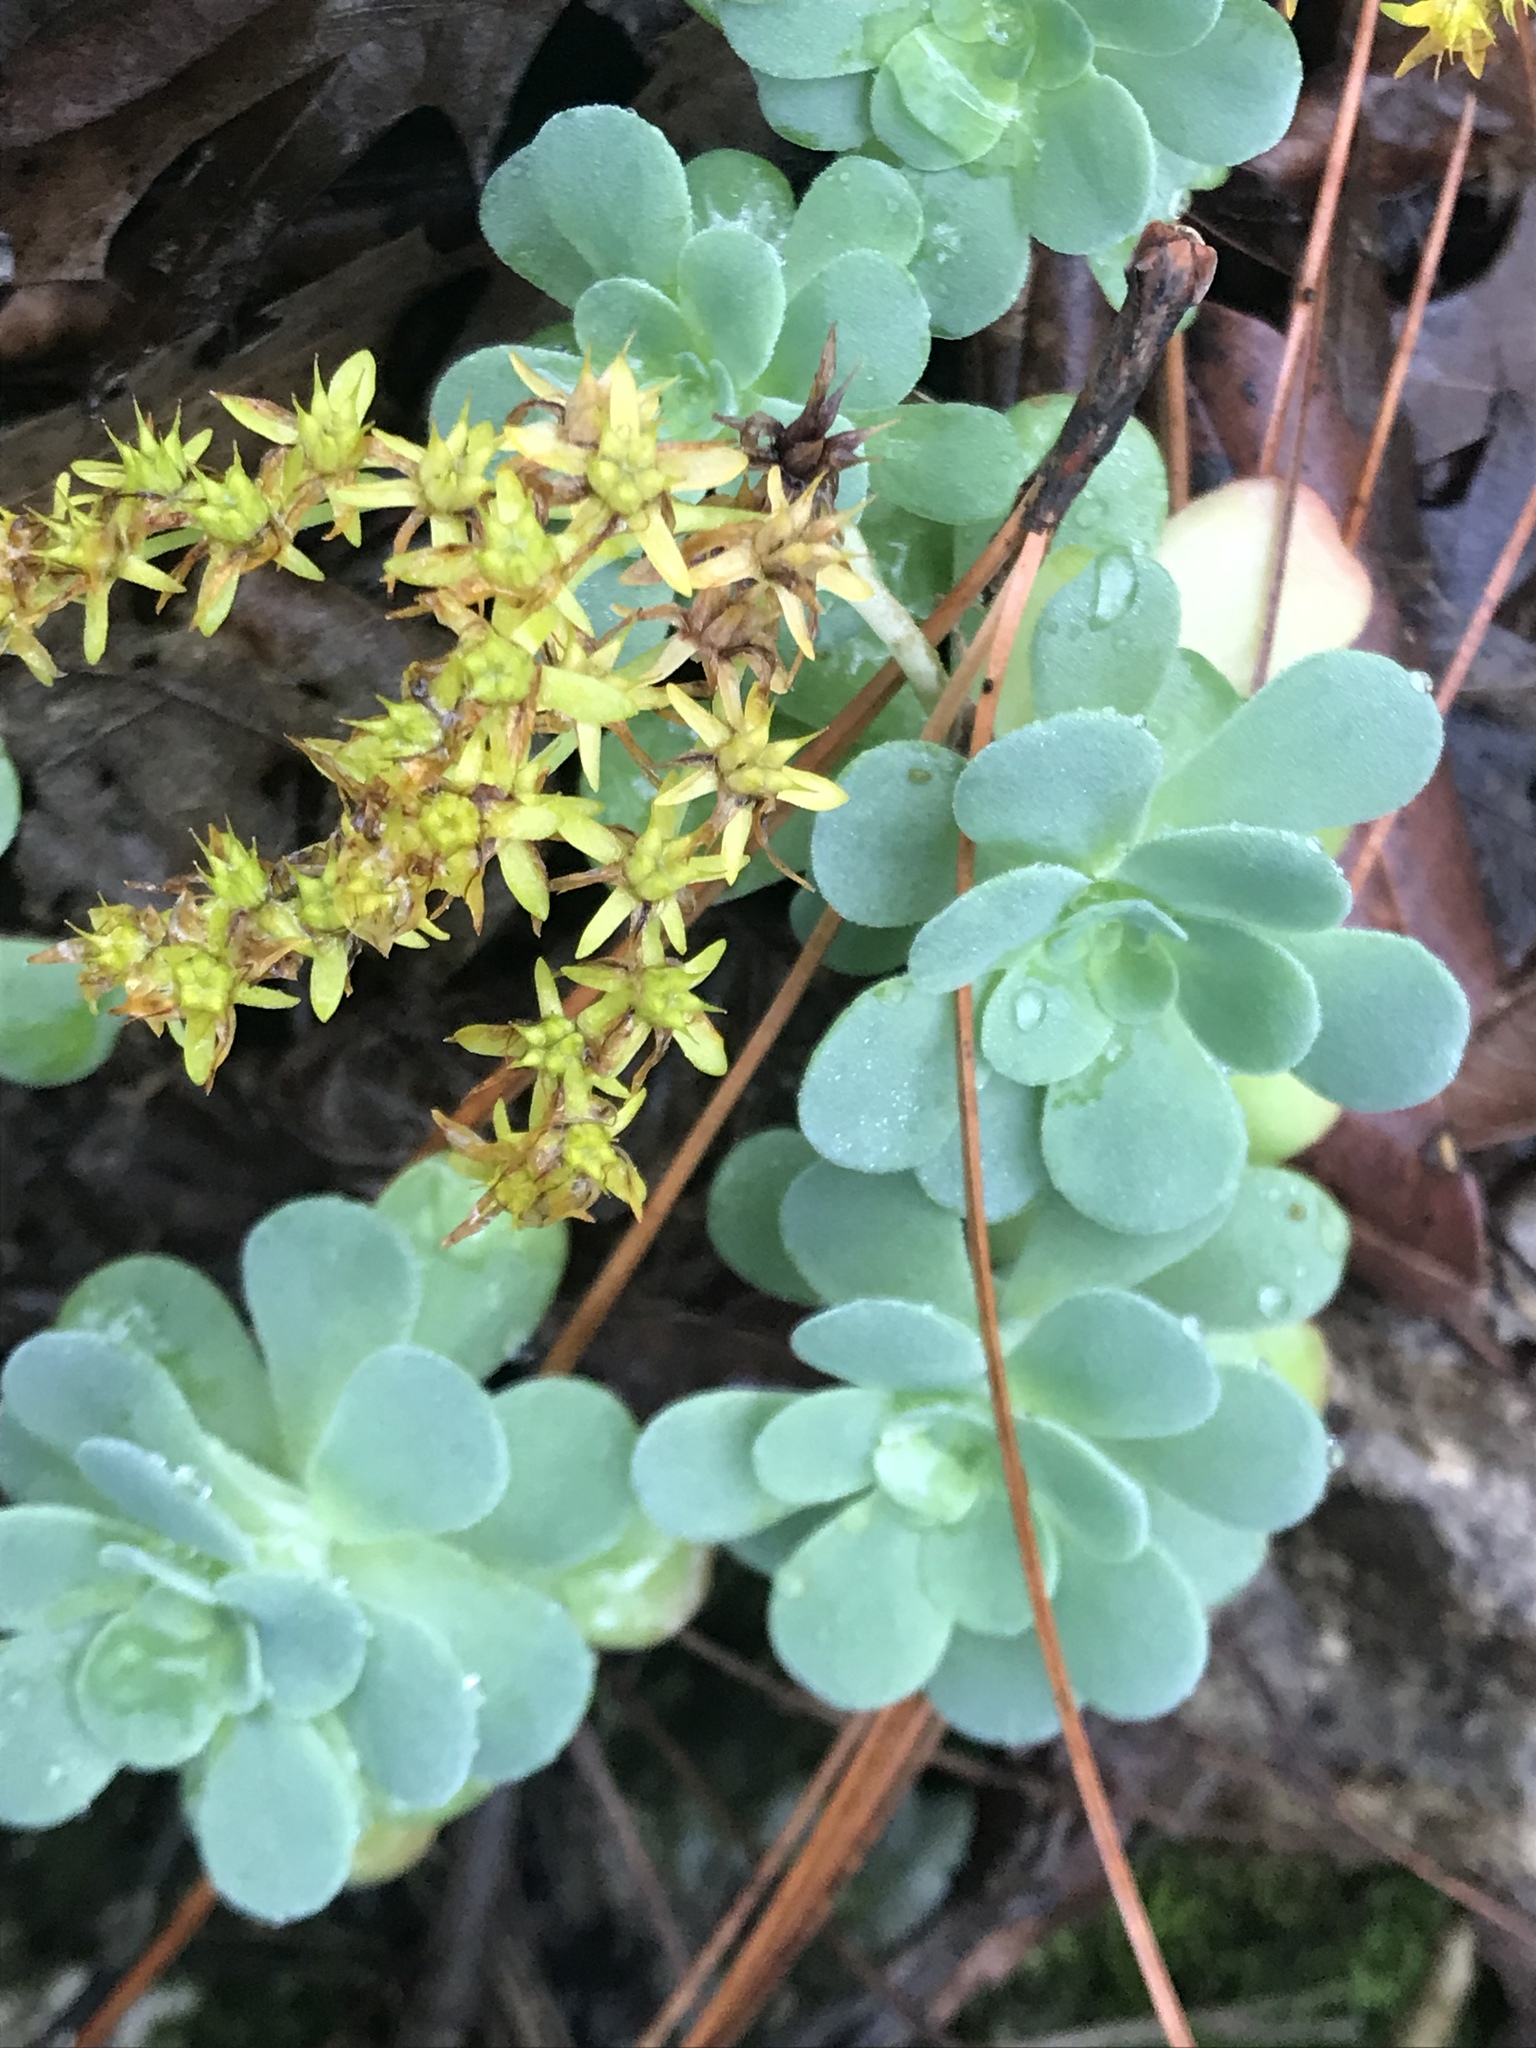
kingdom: Plantae
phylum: Tracheophyta
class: Magnoliopsida
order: Saxifragales
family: Crassulaceae
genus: Sedum
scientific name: Sedum palmeri
